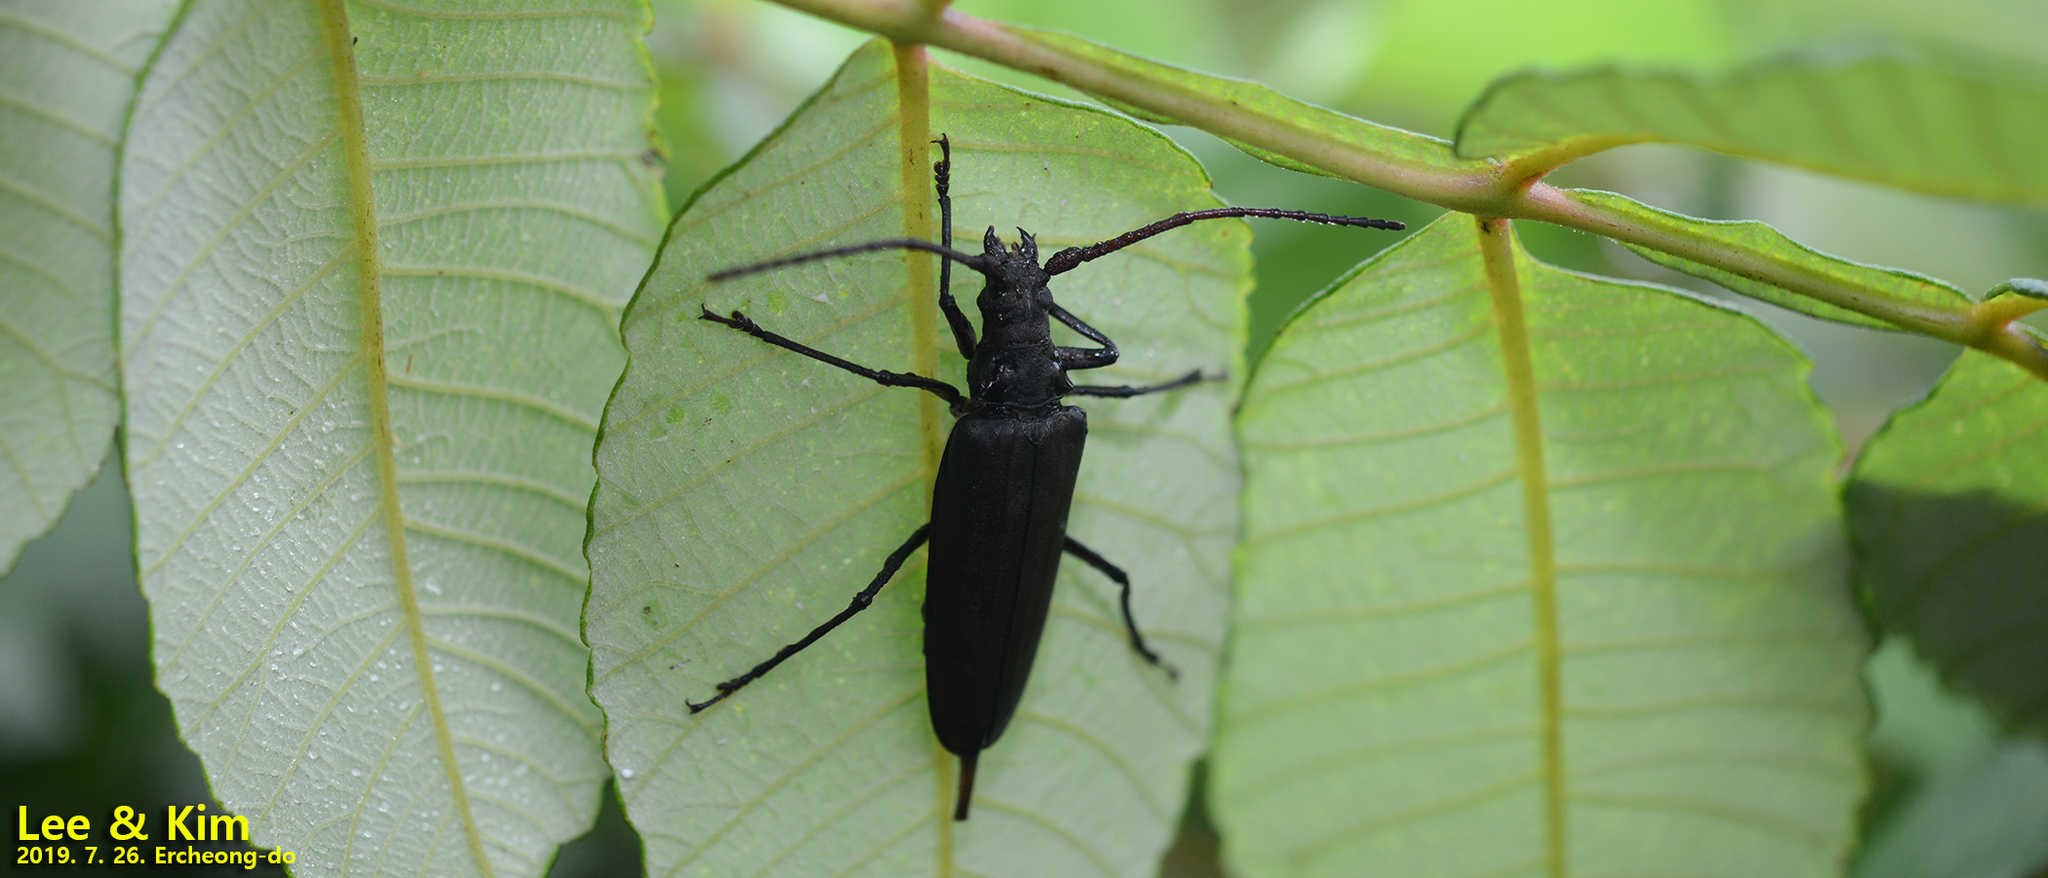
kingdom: Animalia
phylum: Arthropoda
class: Insecta
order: Coleoptera
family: Cerambycidae
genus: Aegosoma
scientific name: Aegosoma sinicum
